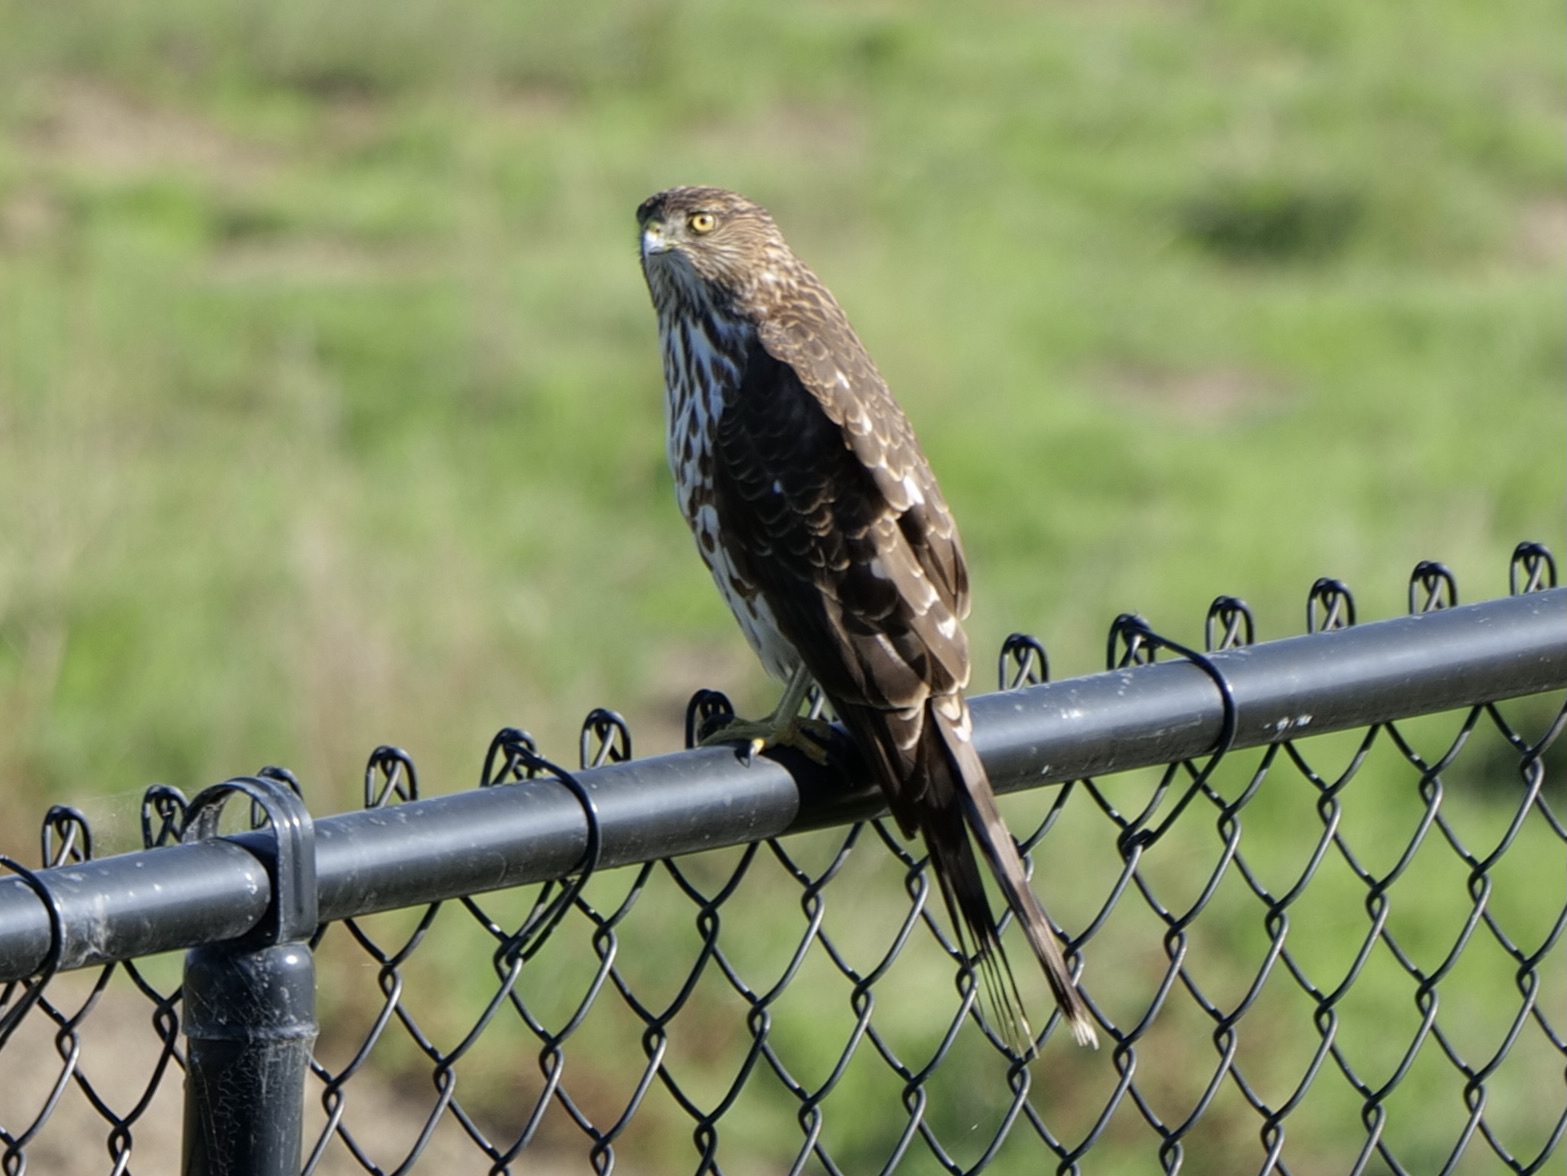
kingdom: Animalia
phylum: Chordata
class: Aves
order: Accipitriformes
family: Accipitridae
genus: Accipiter
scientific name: Accipiter cooperii
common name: Cooper's hawk
